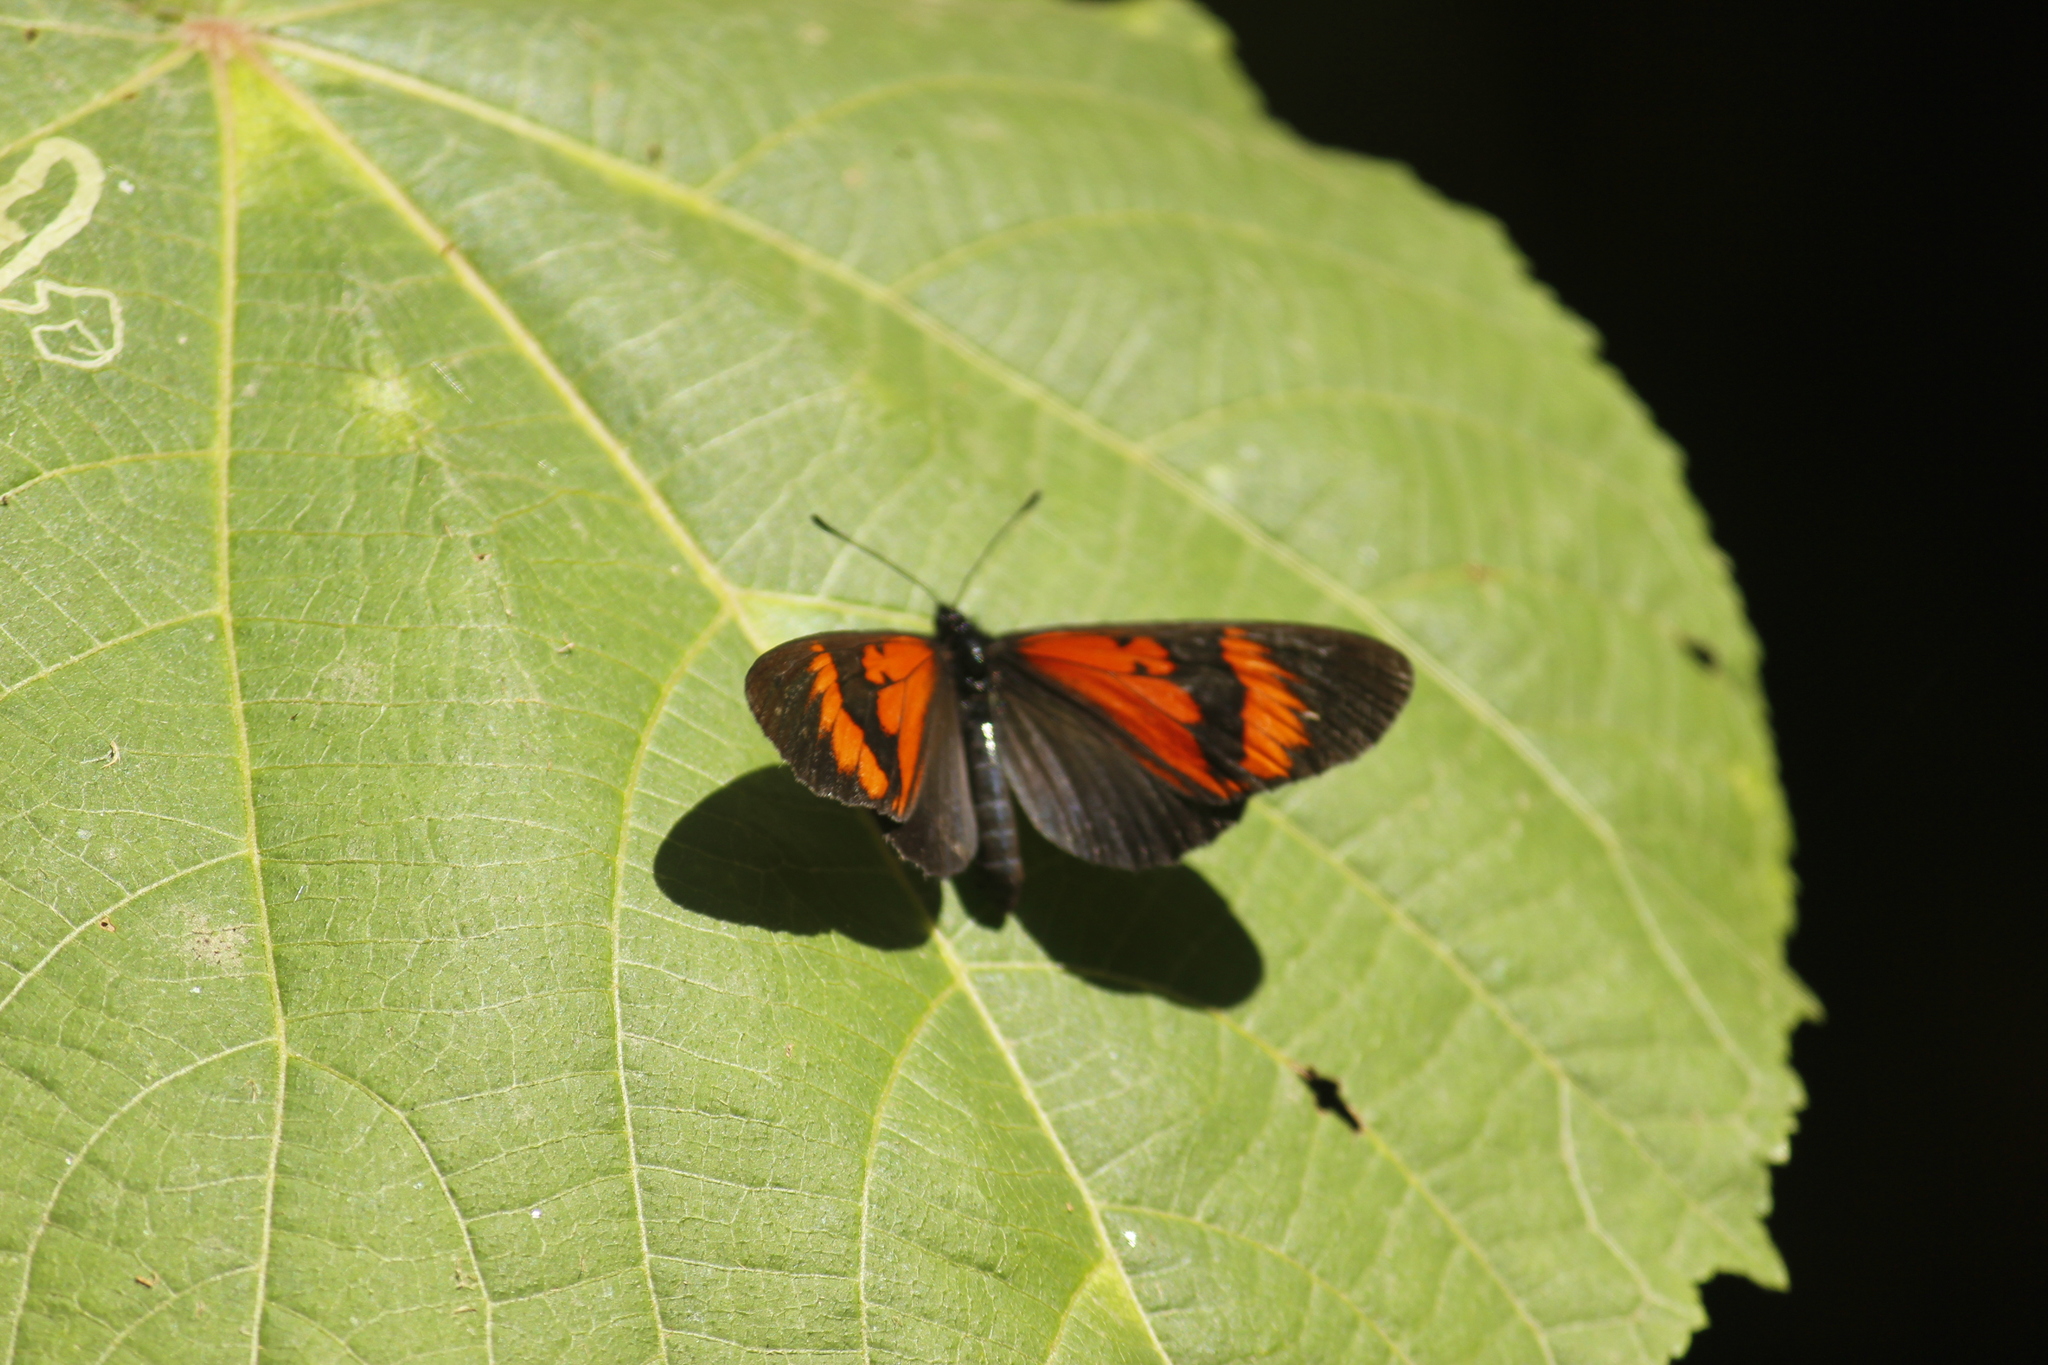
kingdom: Animalia
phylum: Arthropoda
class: Insecta
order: Lepidoptera
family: Nymphalidae
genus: Acraea
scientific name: Acraea Altinote dicaeus
